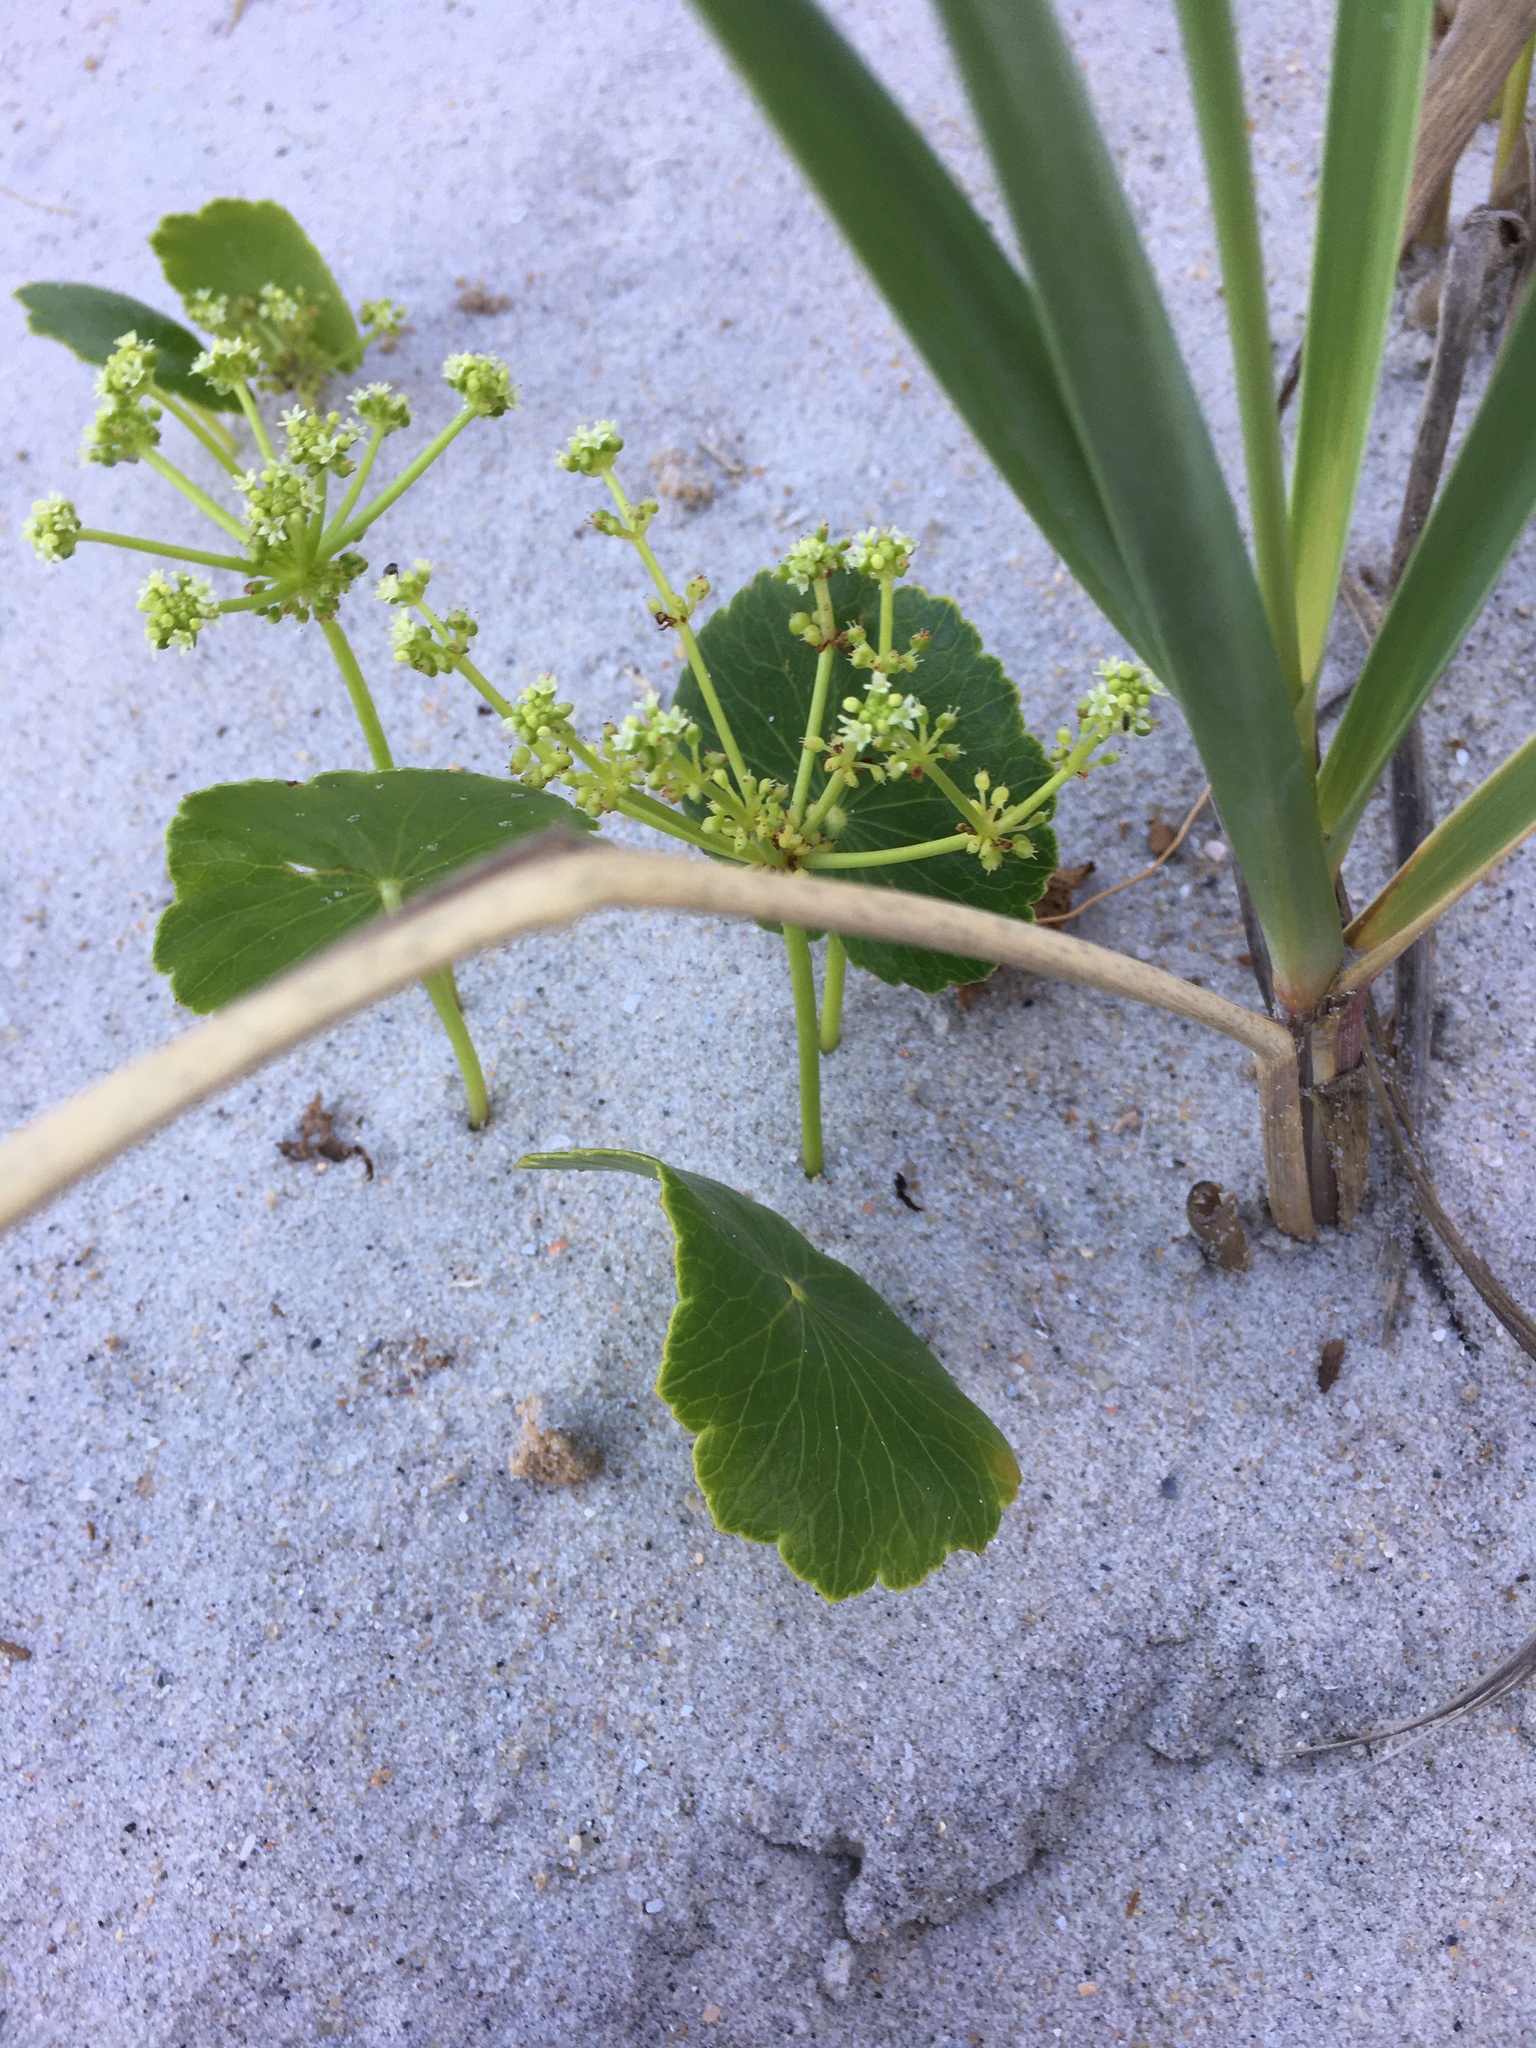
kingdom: Plantae
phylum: Tracheophyta
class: Magnoliopsida
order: Apiales
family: Araliaceae
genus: Hydrocotyle
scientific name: Hydrocotyle bonariensis
